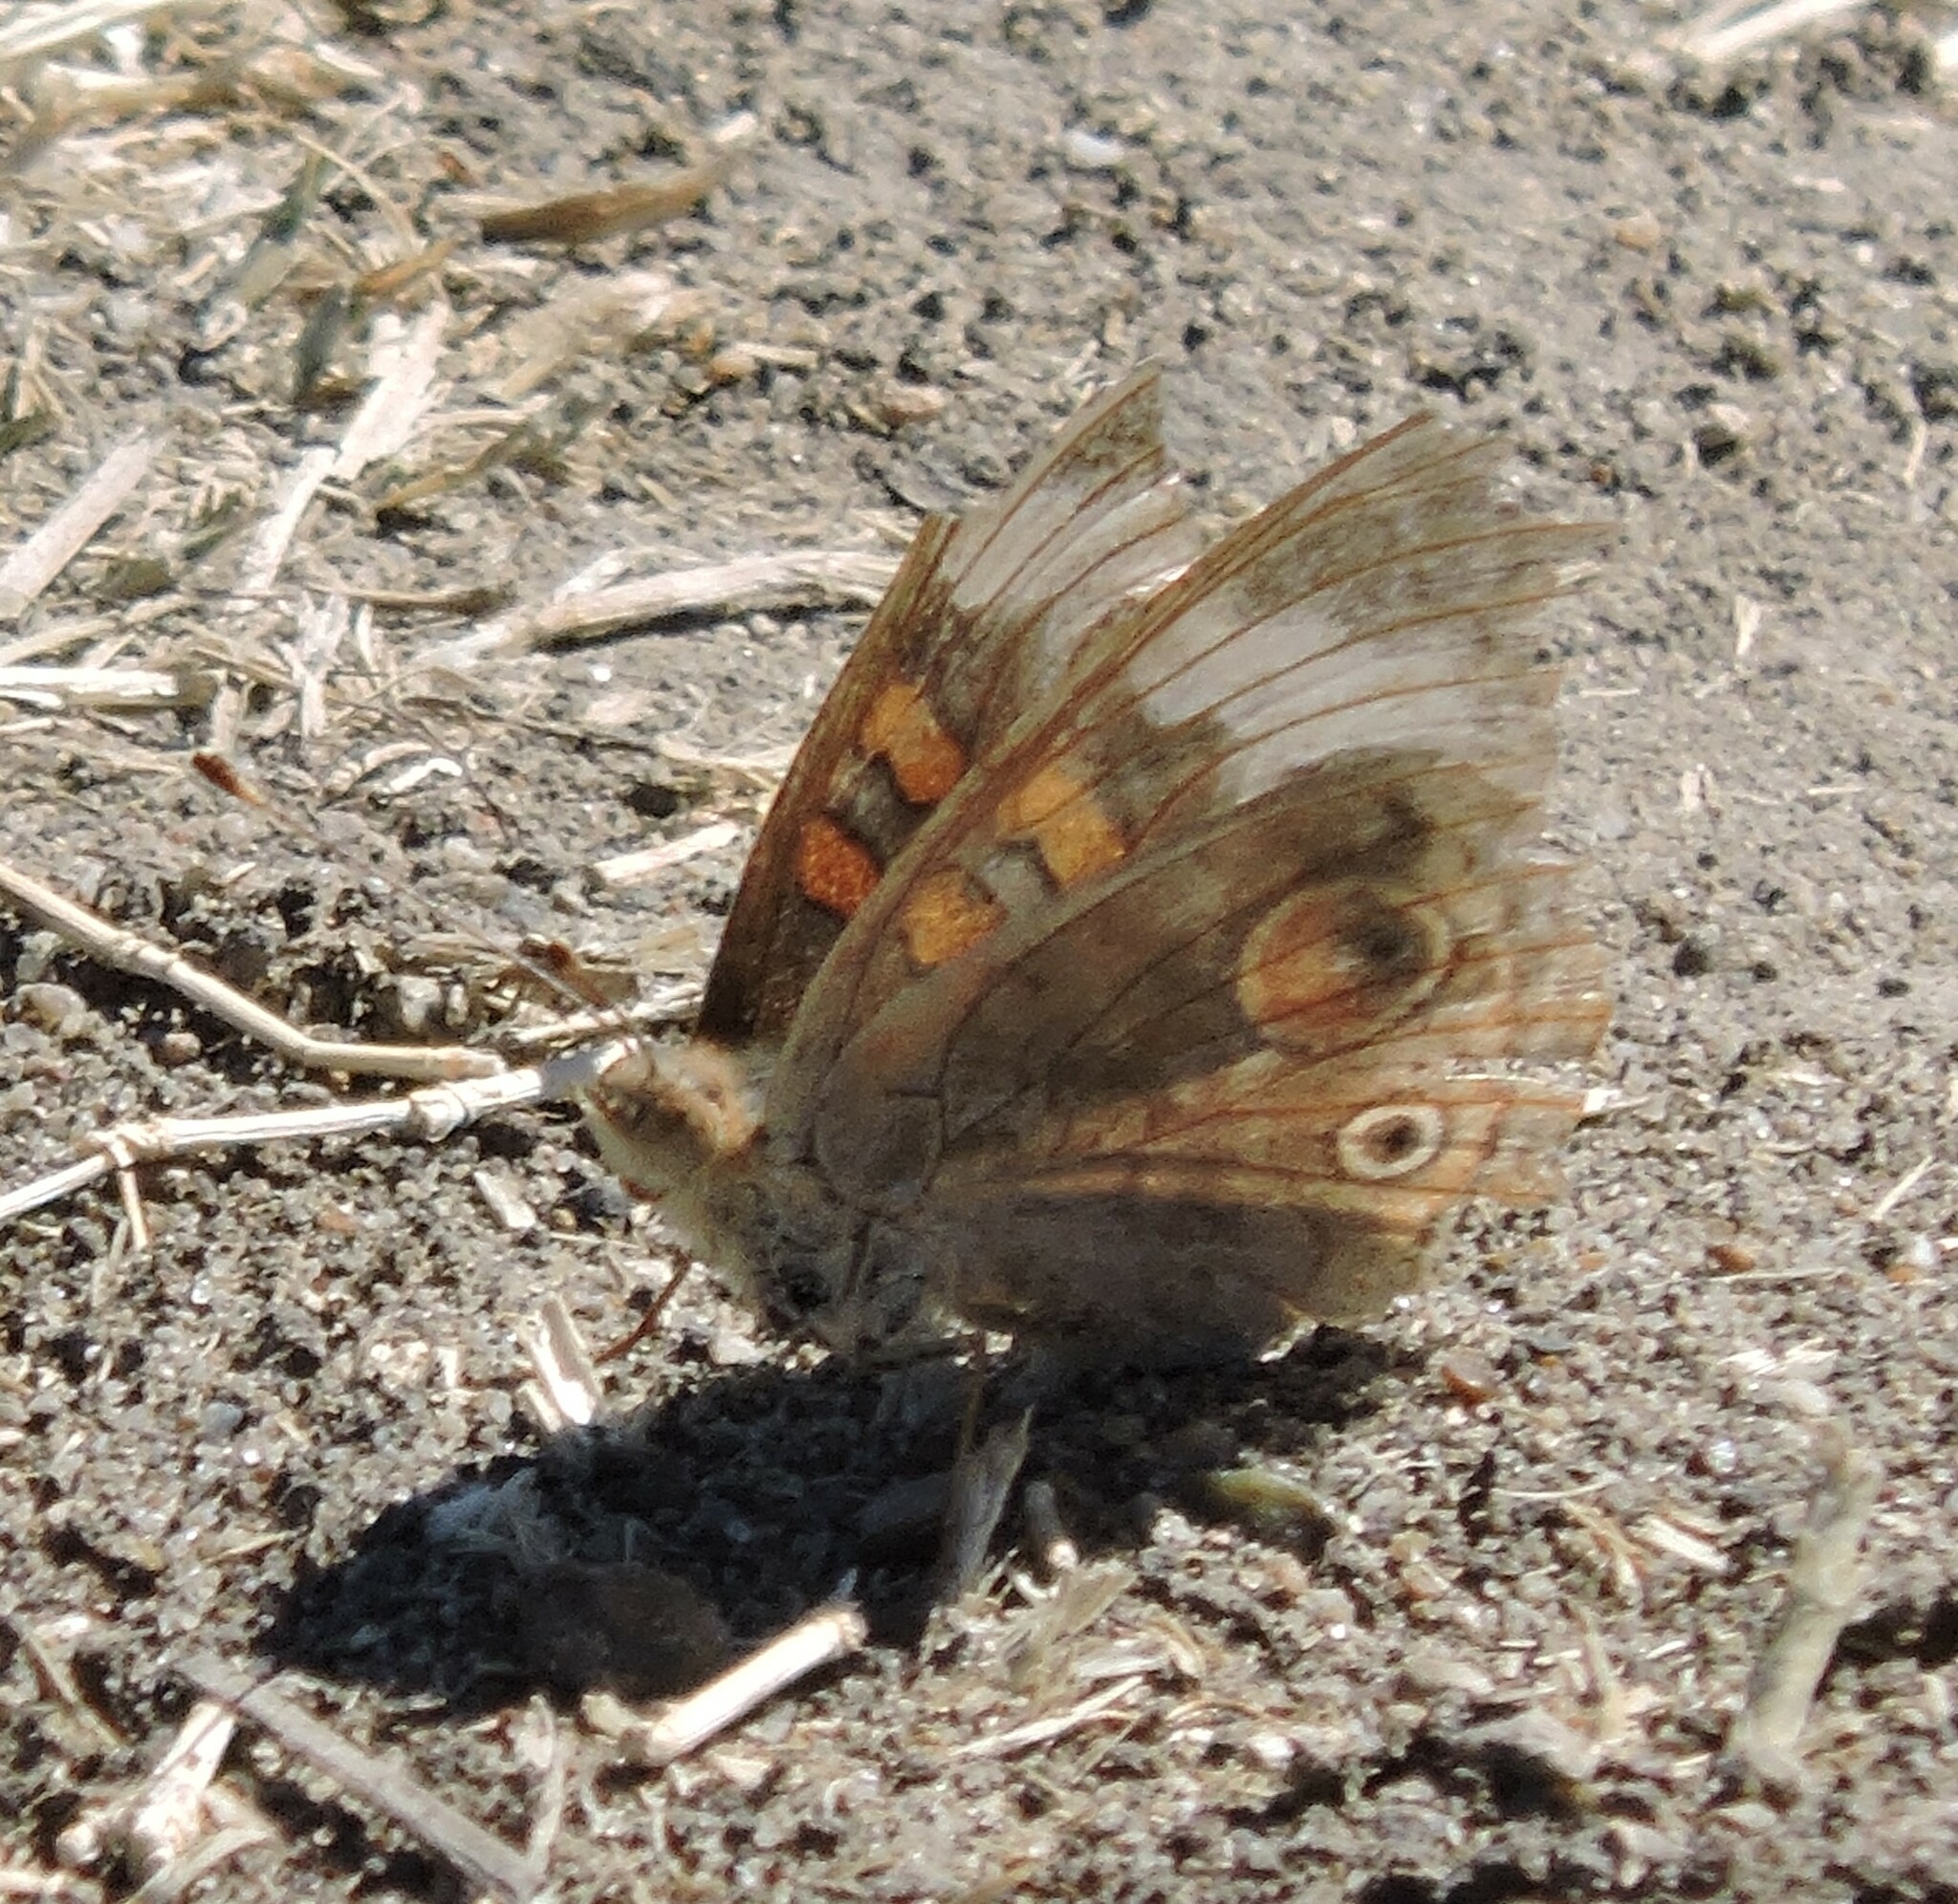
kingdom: Animalia
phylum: Arthropoda
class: Insecta
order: Lepidoptera
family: Nymphalidae
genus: Junonia
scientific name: Junonia grisea
